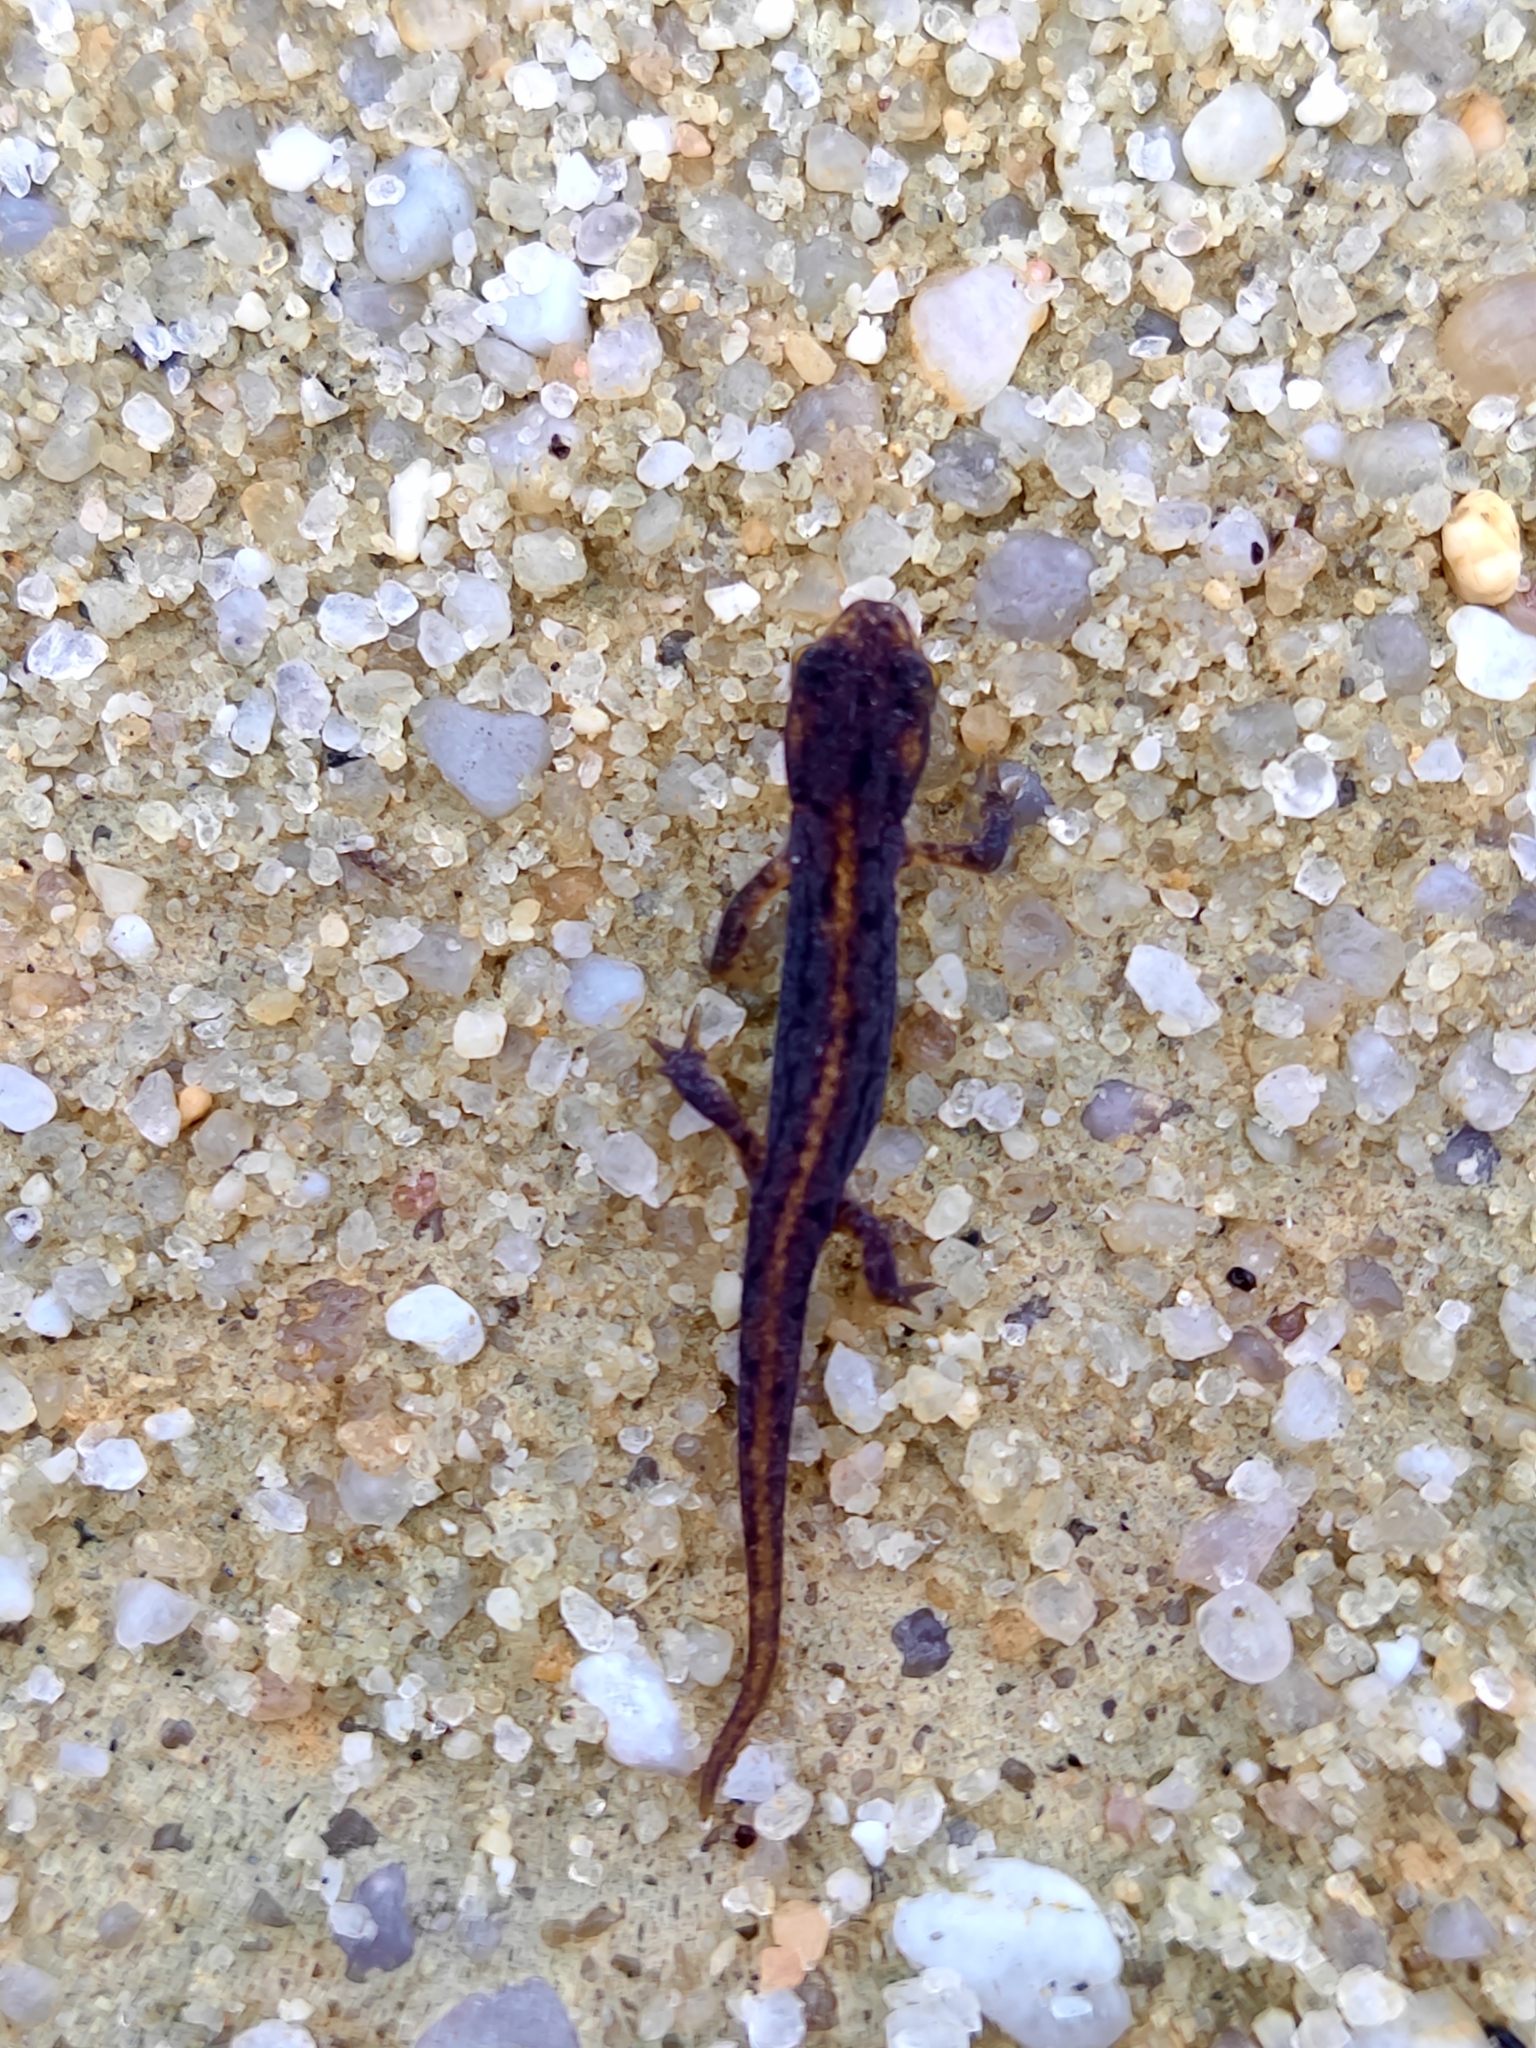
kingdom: Animalia
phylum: Chordata
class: Amphibia
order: Caudata
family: Salamandridae
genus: Lissotriton
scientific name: Lissotriton boscai
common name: Bosca's newt
